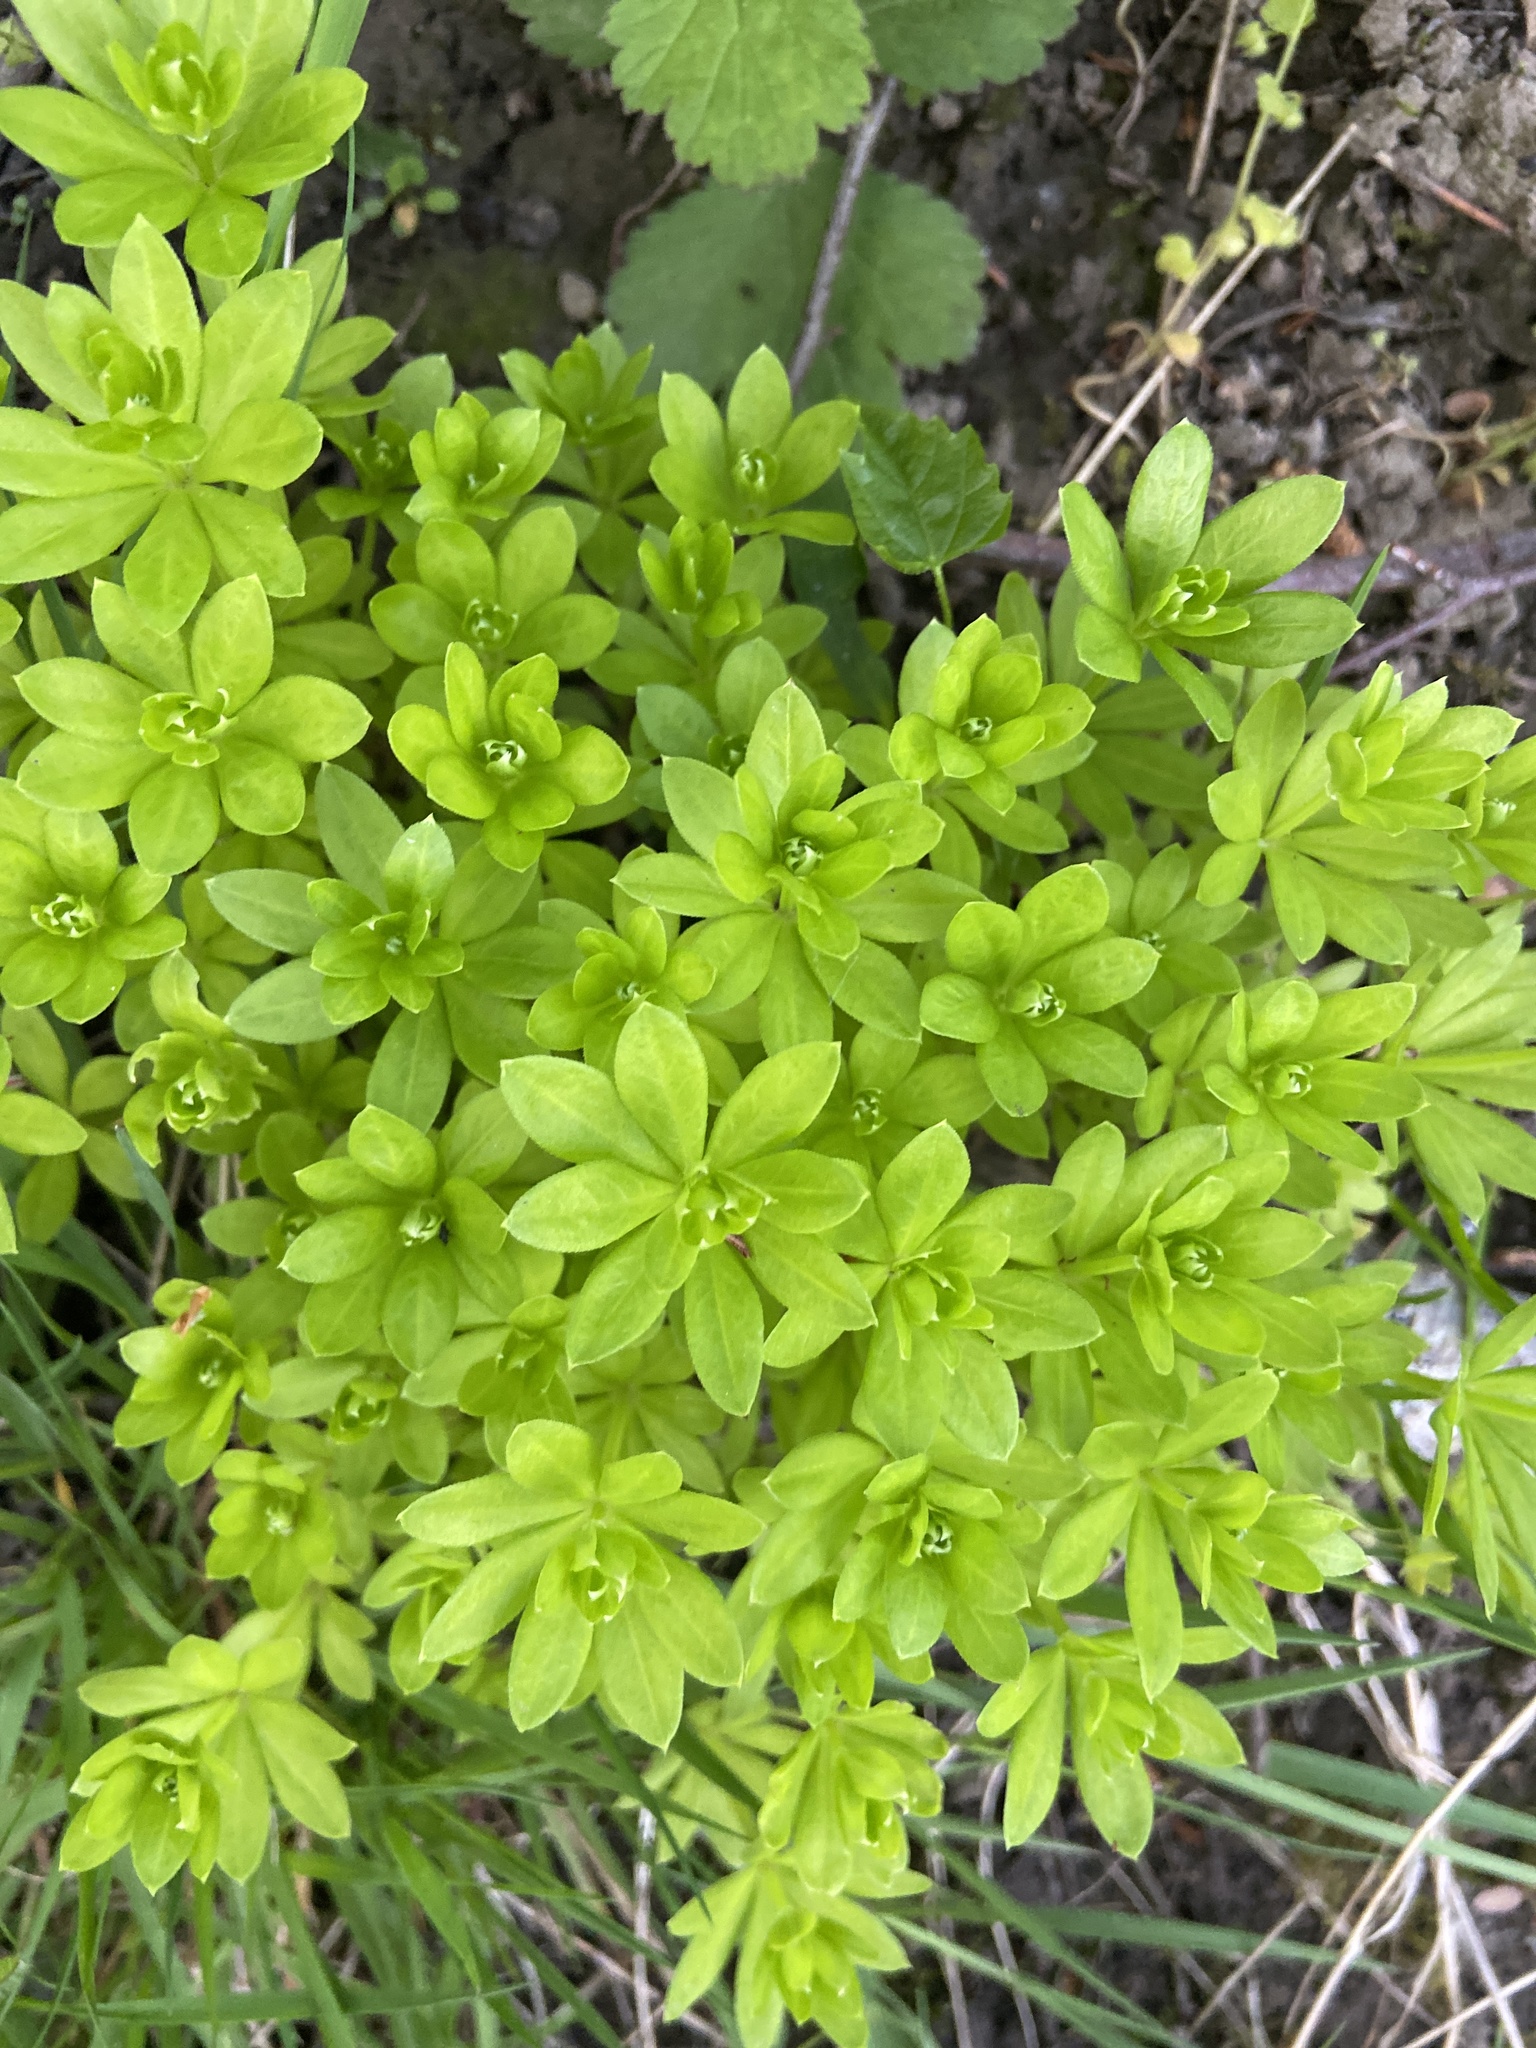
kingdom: Plantae
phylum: Tracheophyta
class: Magnoliopsida
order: Gentianales
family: Rubiaceae
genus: Galium
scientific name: Galium odoratum
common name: Sweet woodruff
